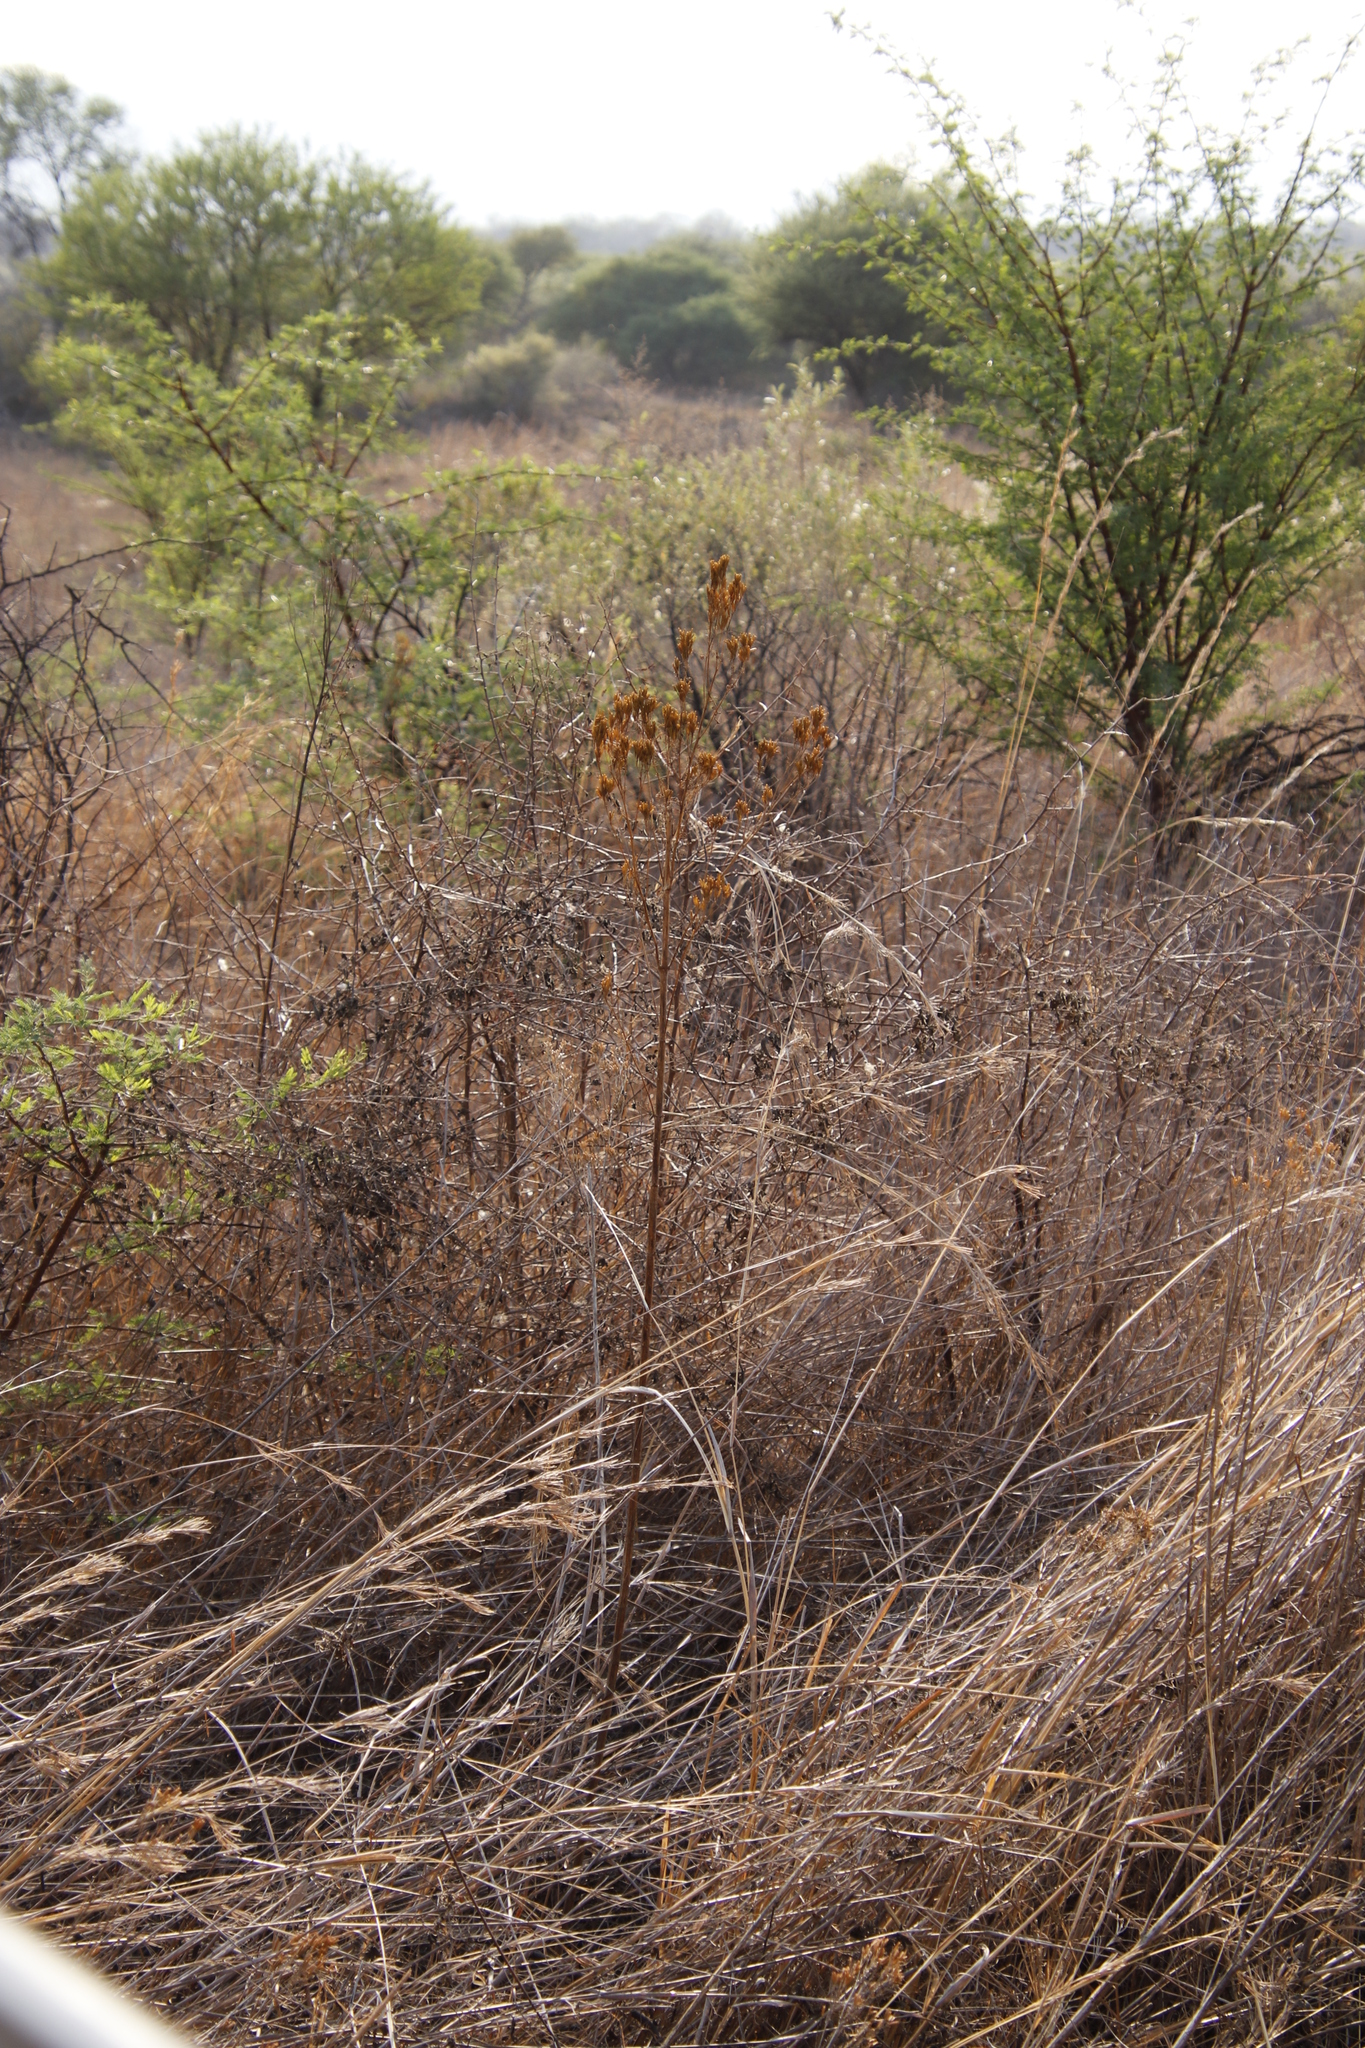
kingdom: Plantae
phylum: Tracheophyta
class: Magnoliopsida
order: Asterales
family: Asteraceae
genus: Tagetes
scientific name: Tagetes minuta
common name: Muster john henry
